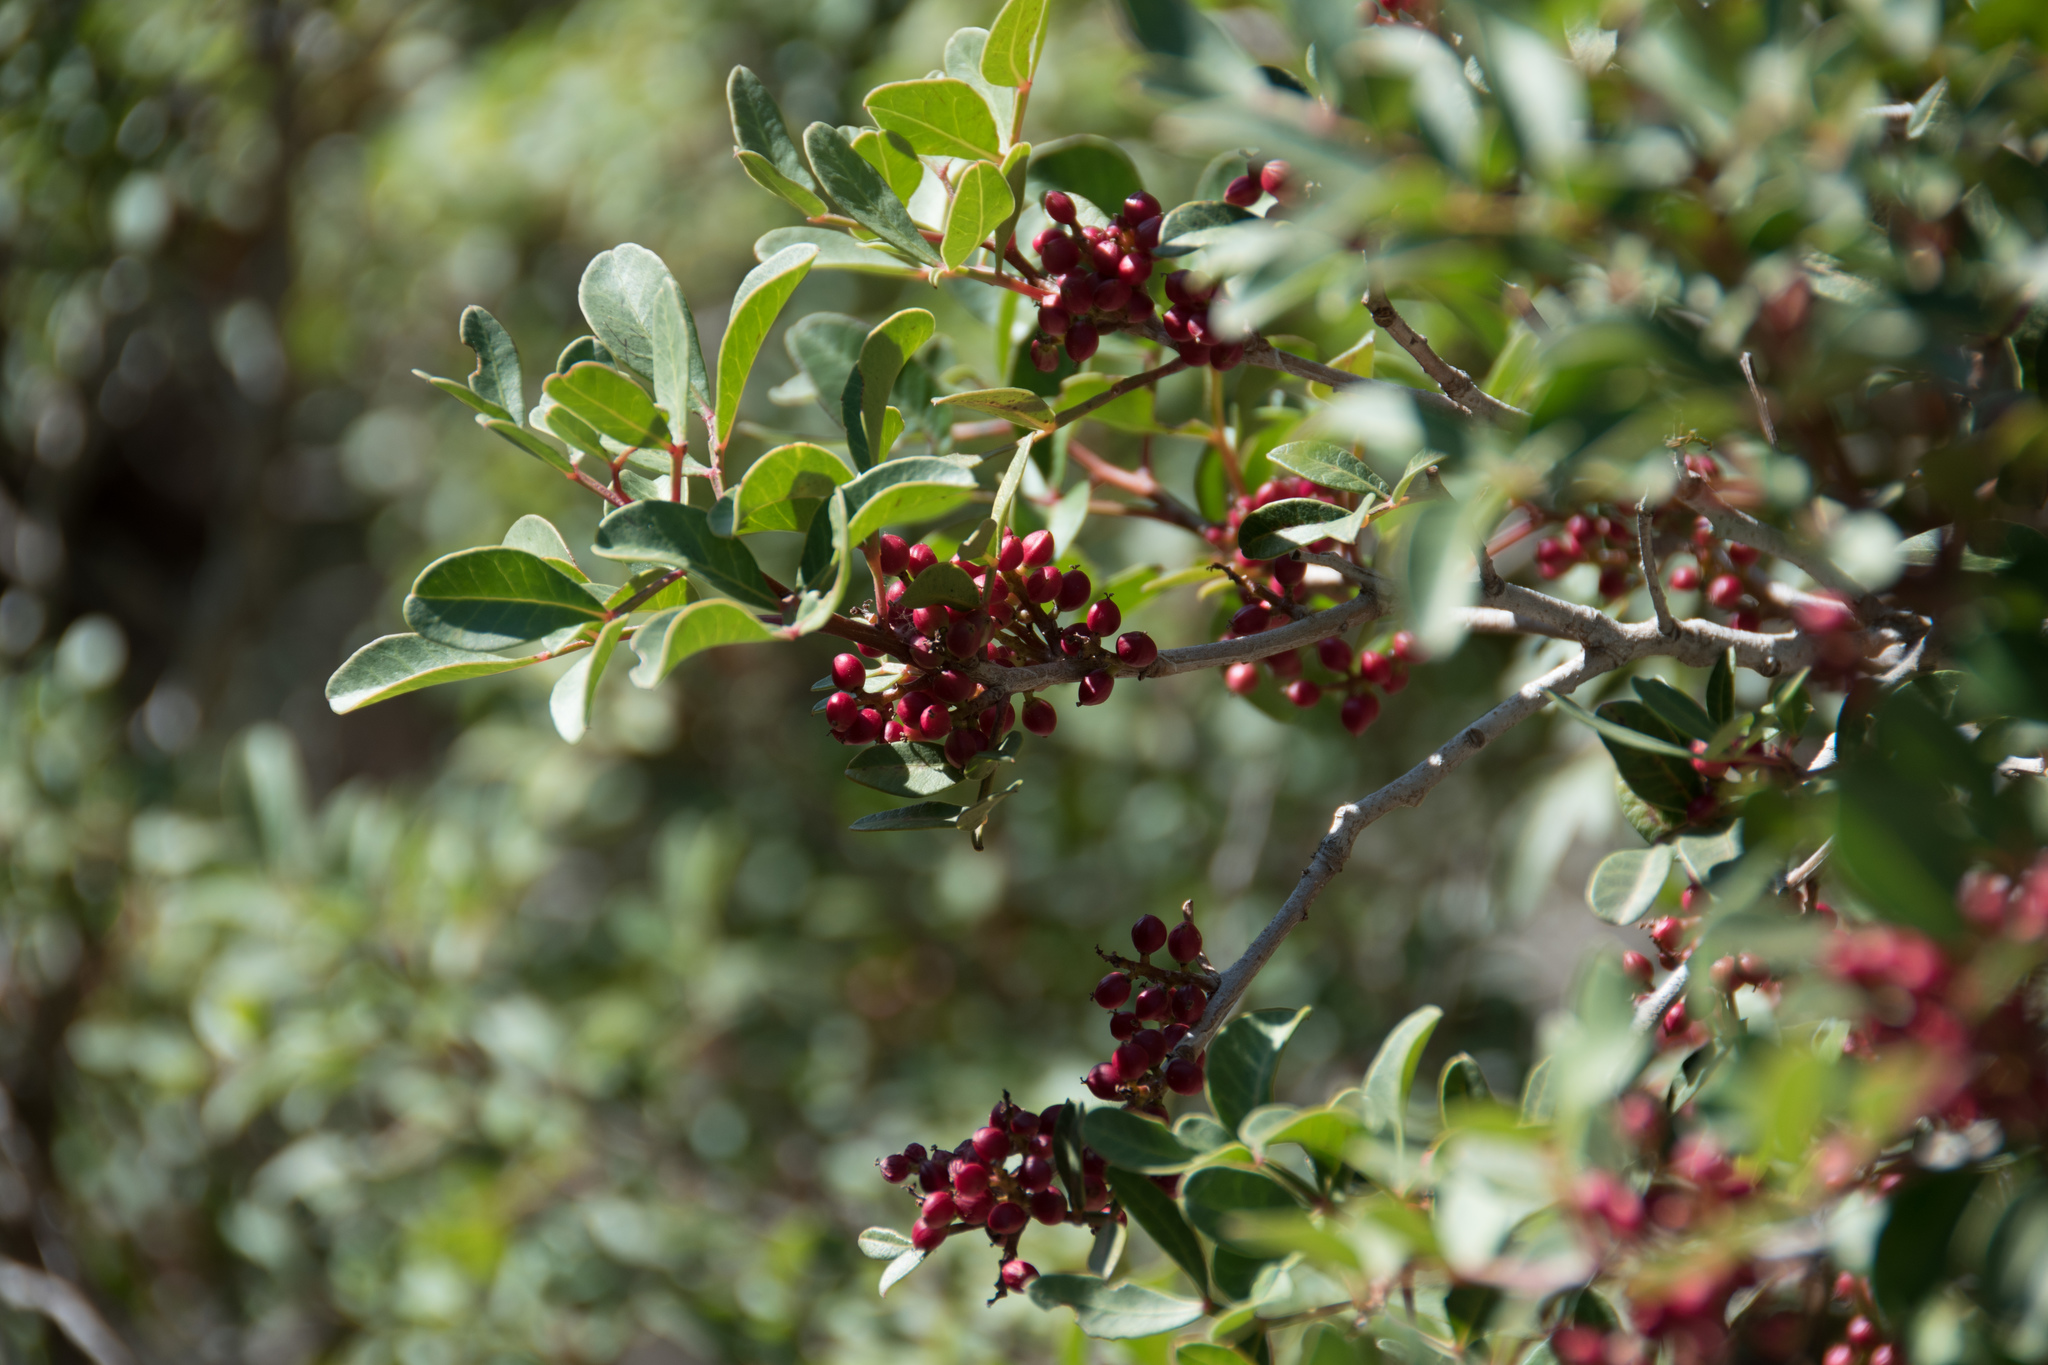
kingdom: Plantae
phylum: Tracheophyta
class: Magnoliopsida
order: Sapindales
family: Anacardiaceae
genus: Pistacia
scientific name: Pistacia lentiscus
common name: Lentisk
